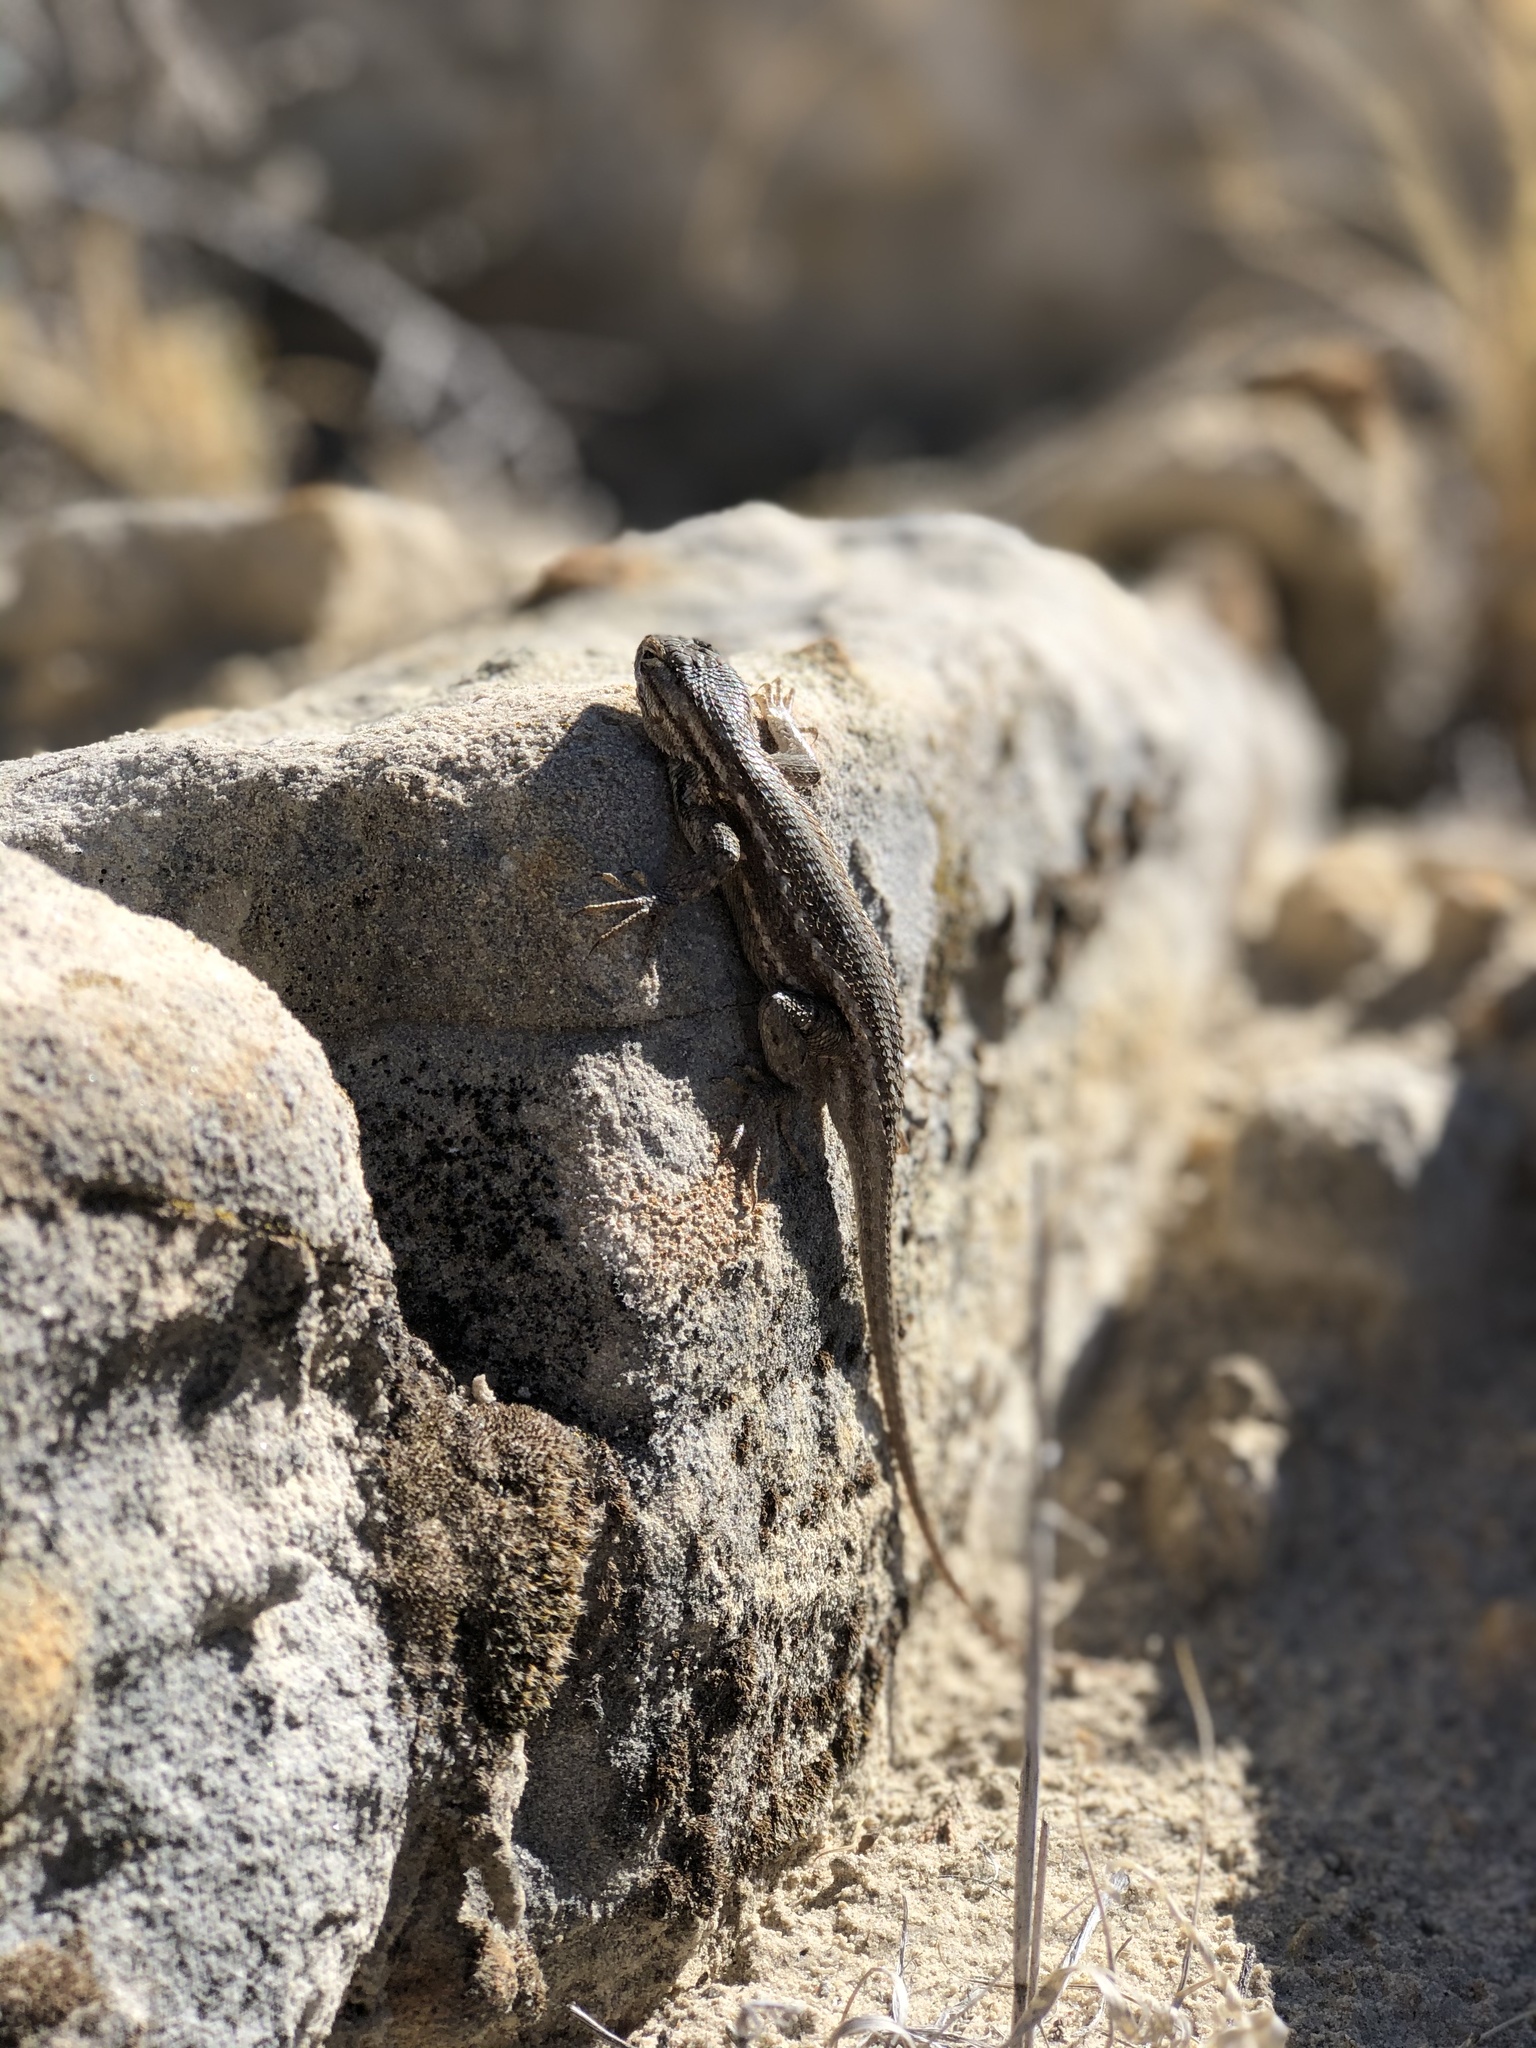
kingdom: Animalia
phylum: Chordata
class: Squamata
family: Phrynosomatidae
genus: Sceloporus
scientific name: Sceloporus cowlesi
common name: White sands prairie lizard
